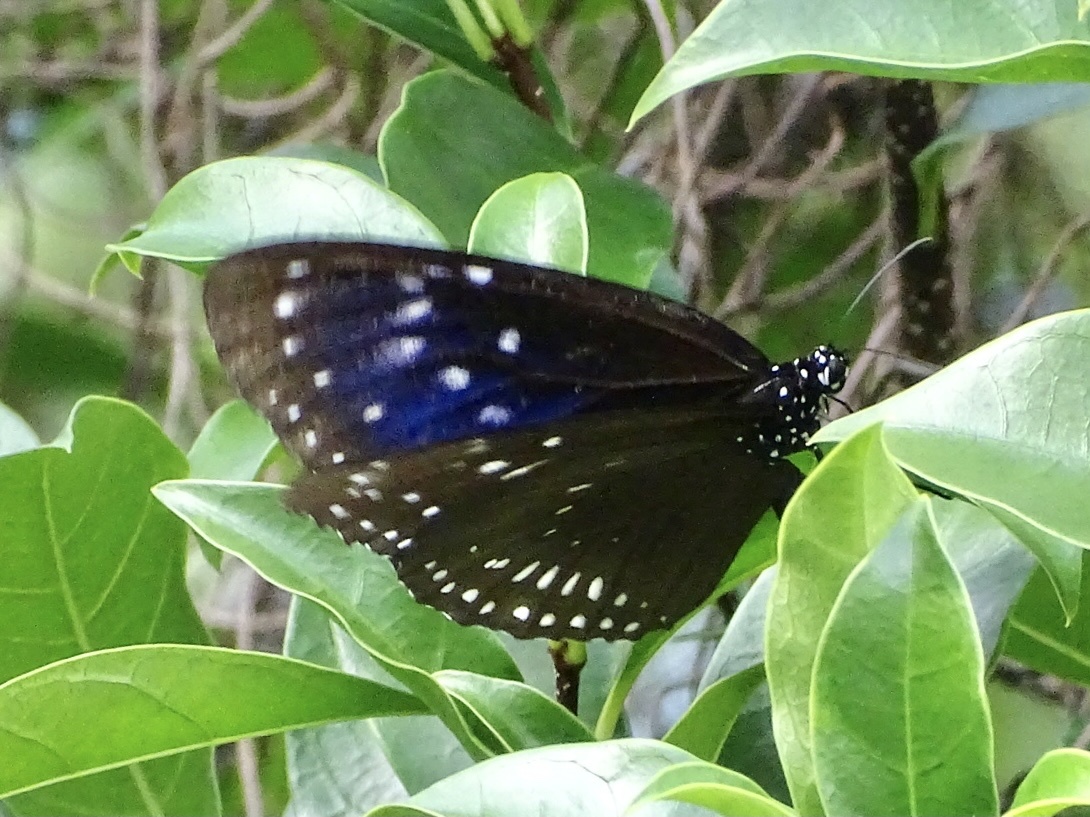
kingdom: Animalia
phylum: Arthropoda
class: Insecta
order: Lepidoptera
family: Nymphalidae
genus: Euploea
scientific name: Euploea midamus
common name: Blue-spotted crow butterfly
